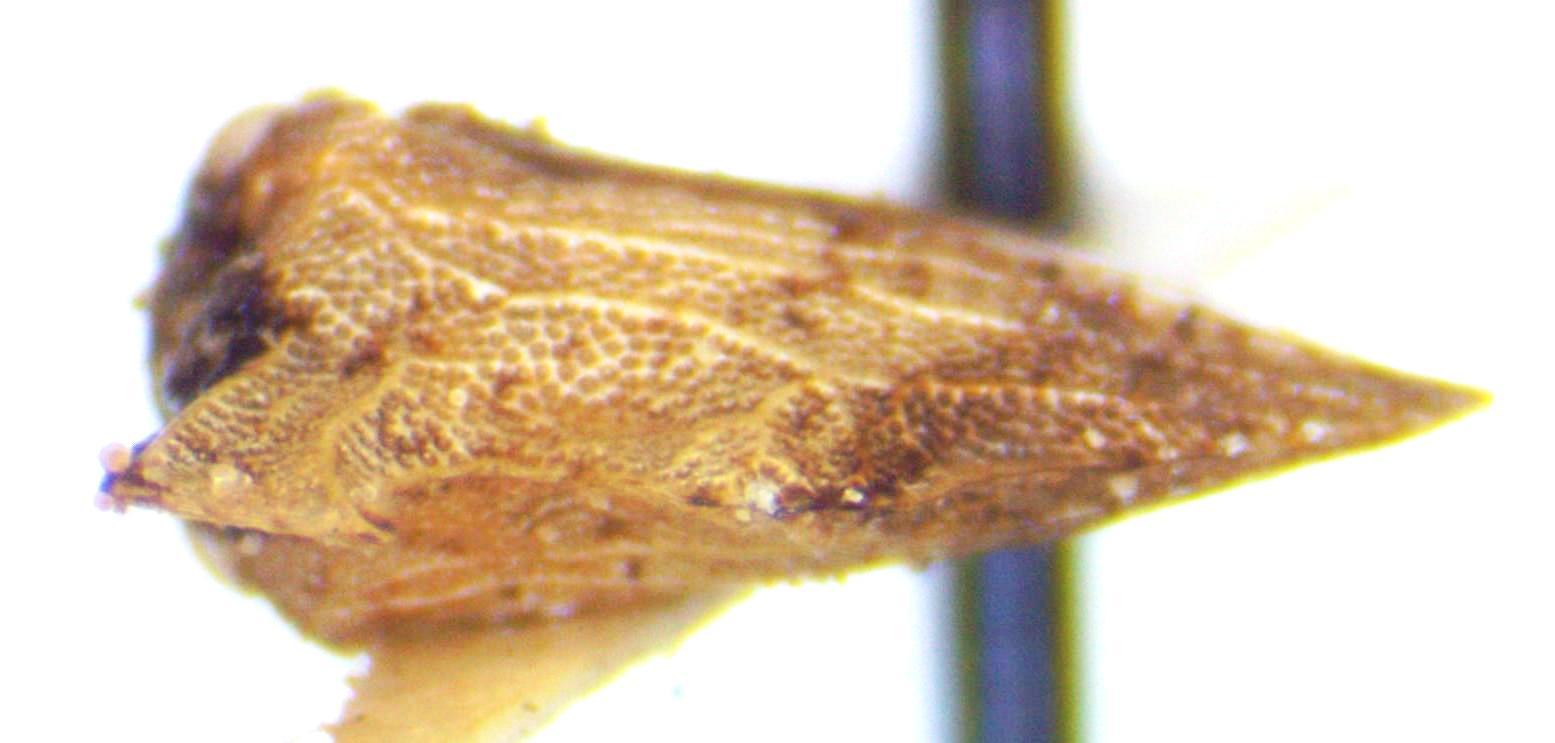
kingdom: Animalia
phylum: Arthropoda
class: Insecta
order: Hemiptera
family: Membracidae
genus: Entylia
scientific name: Entylia carinata
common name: Keeled treehopper
